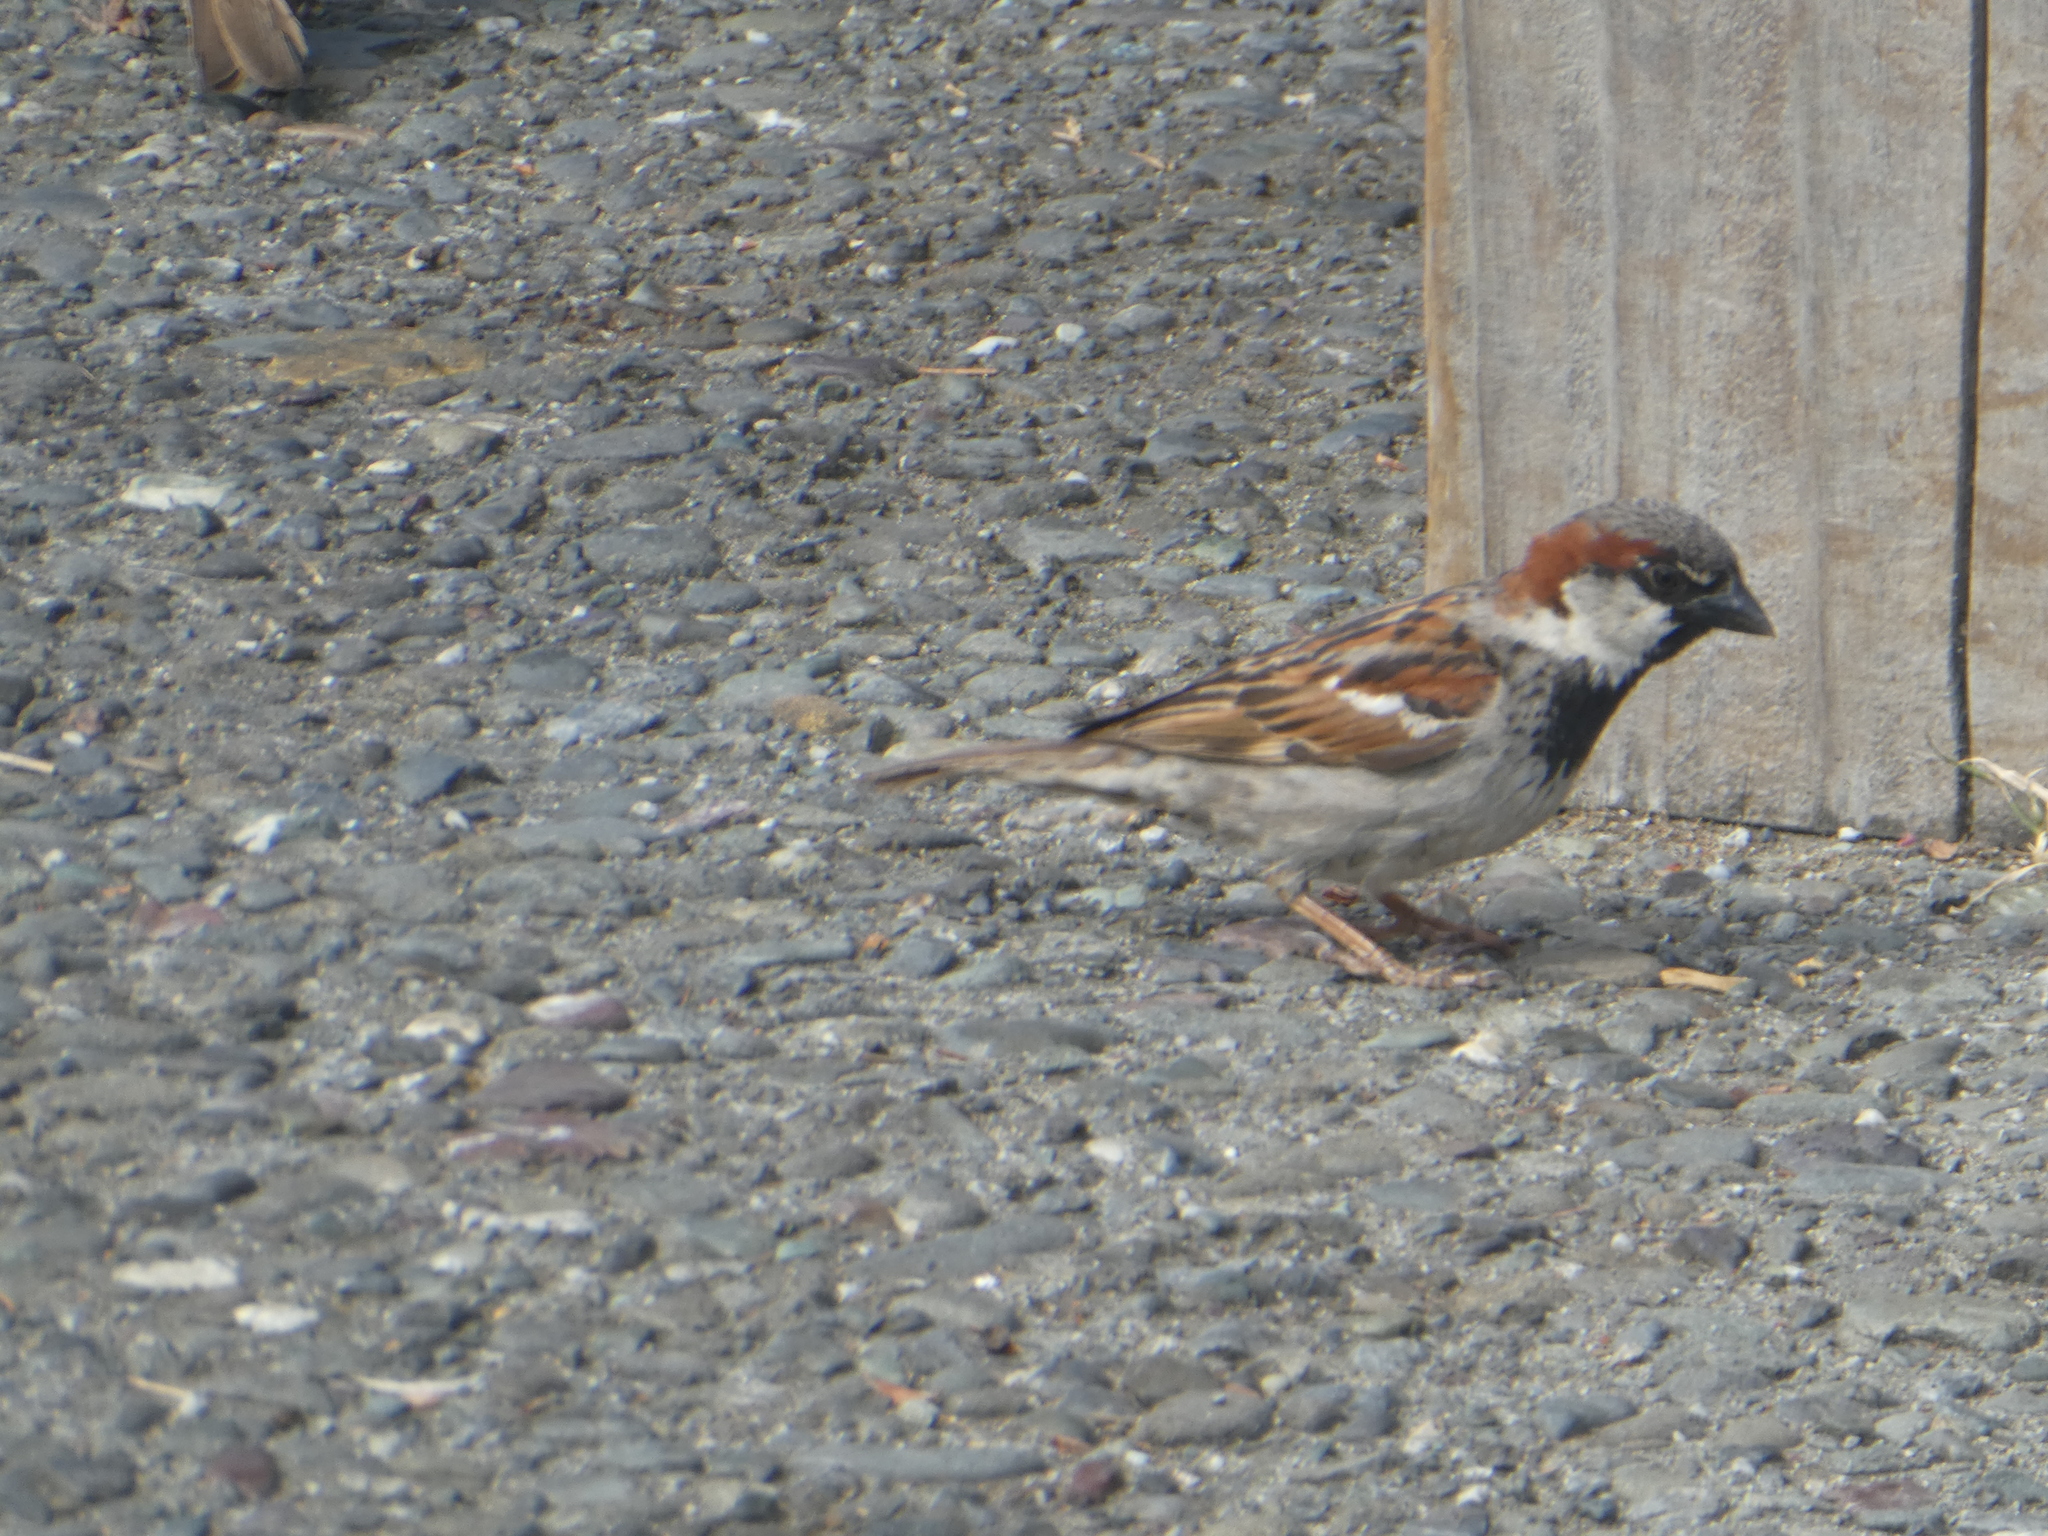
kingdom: Animalia
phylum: Chordata
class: Aves
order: Passeriformes
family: Passeridae
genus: Passer
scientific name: Passer domesticus
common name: House sparrow
